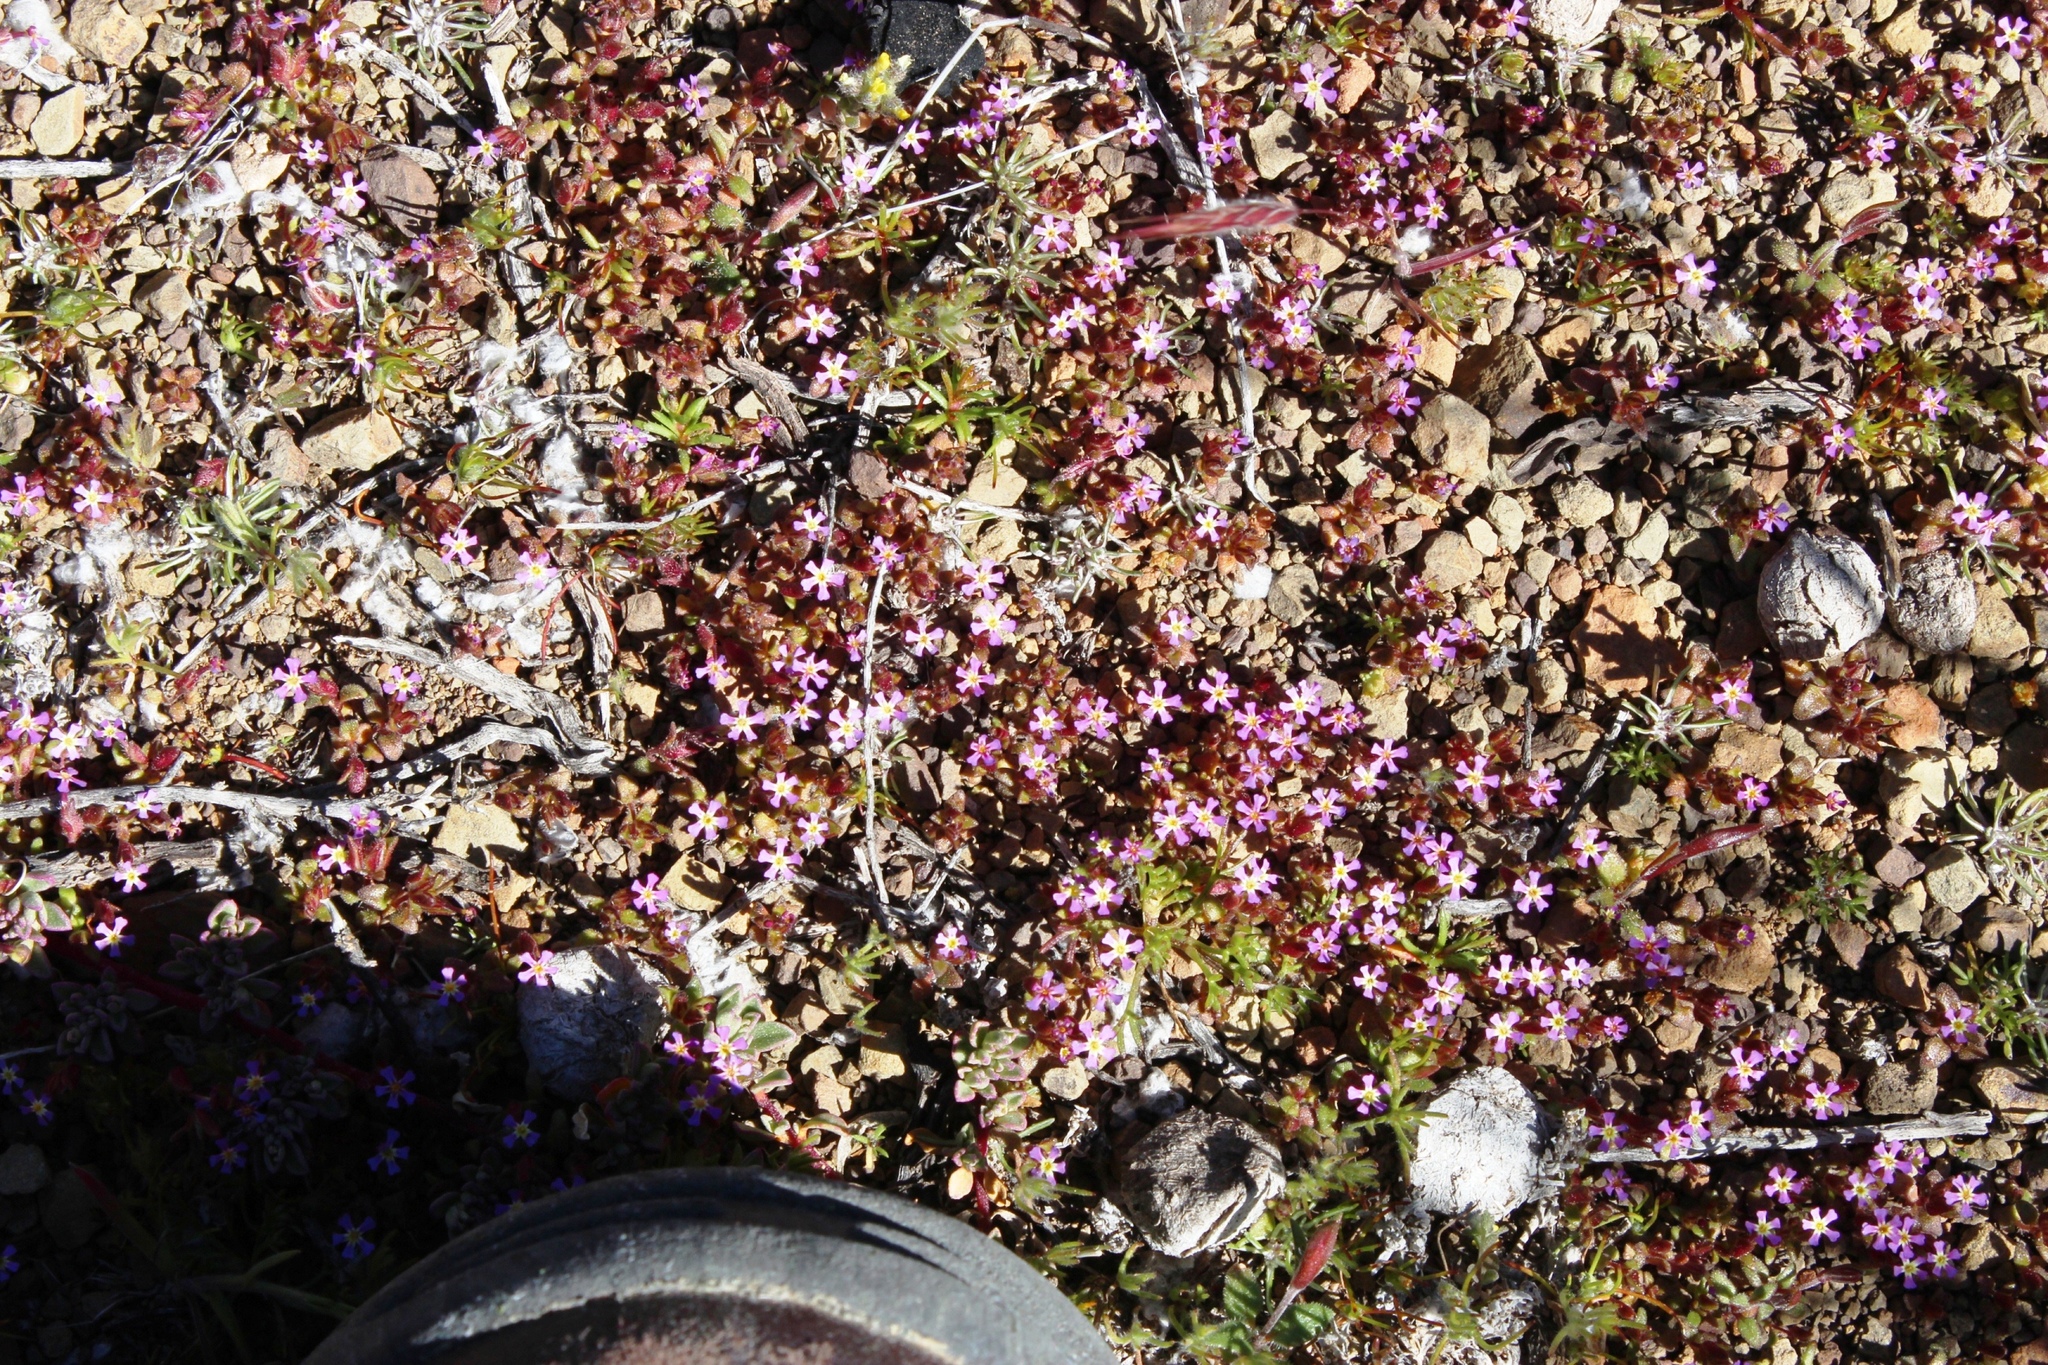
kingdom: Plantae
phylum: Tracheophyta
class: Magnoliopsida
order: Lamiales
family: Scrophulariaceae
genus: Zaluzianskya
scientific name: Zaluzianskya minima
